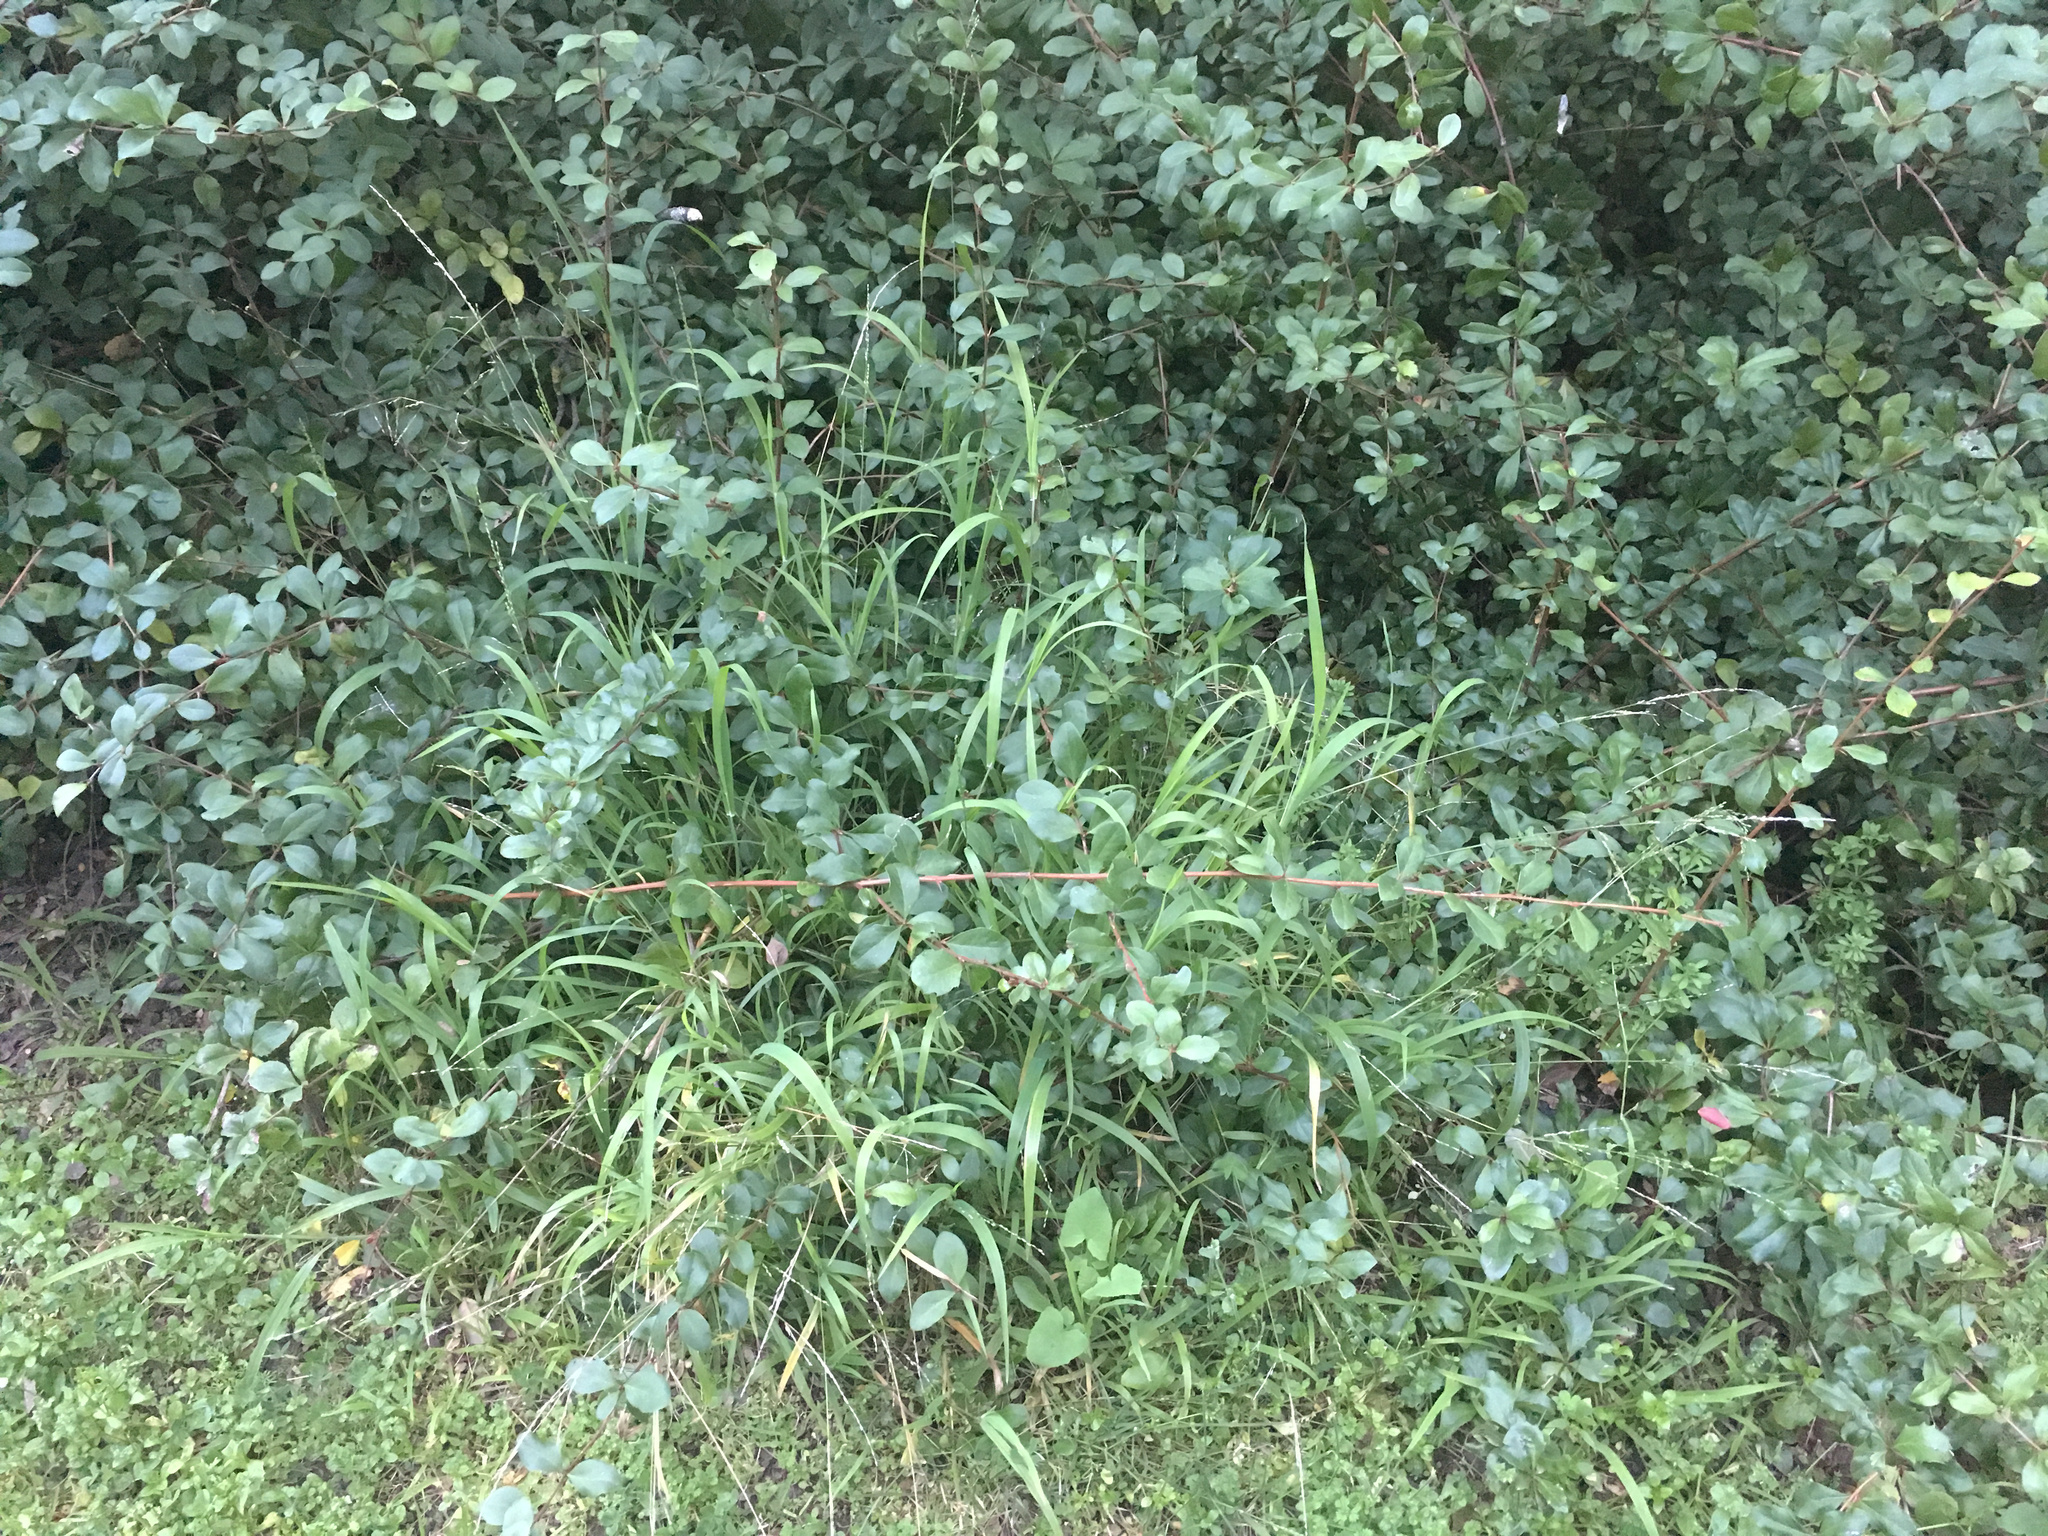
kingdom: Plantae
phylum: Tracheophyta
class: Liliopsida
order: Poales
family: Poaceae
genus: Ehrharta
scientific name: Ehrharta erecta
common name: Panic veldtgrass
